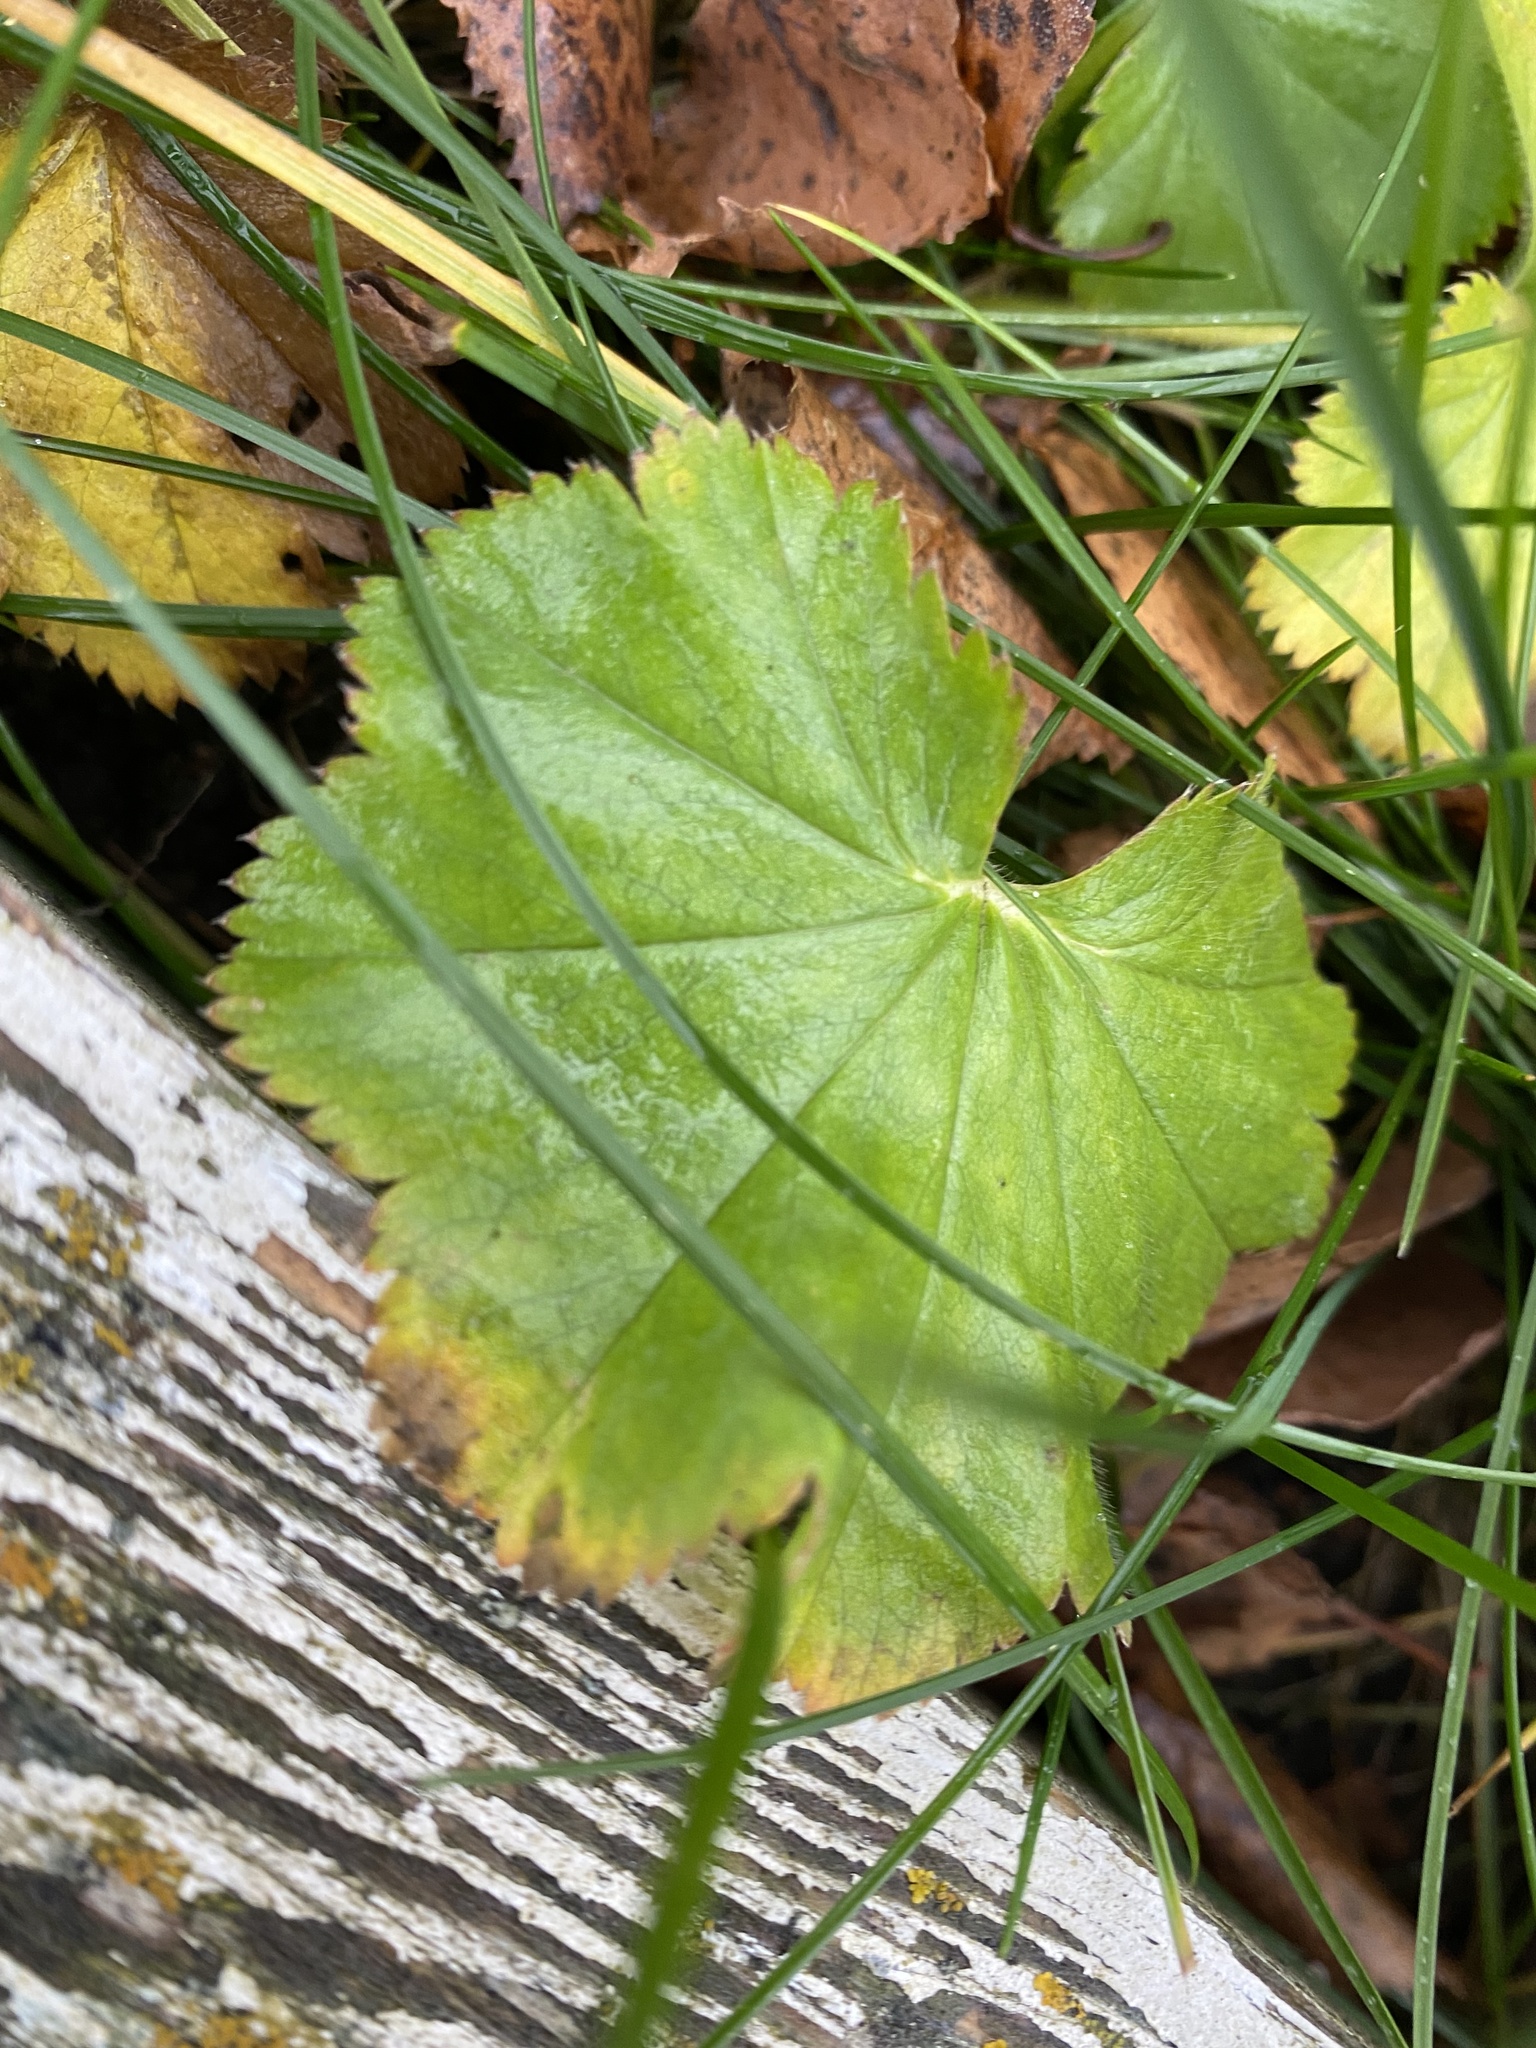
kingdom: Plantae
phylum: Tracheophyta
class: Magnoliopsida
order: Rosales
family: Rosaceae
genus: Alchemilla
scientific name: Alchemilla
